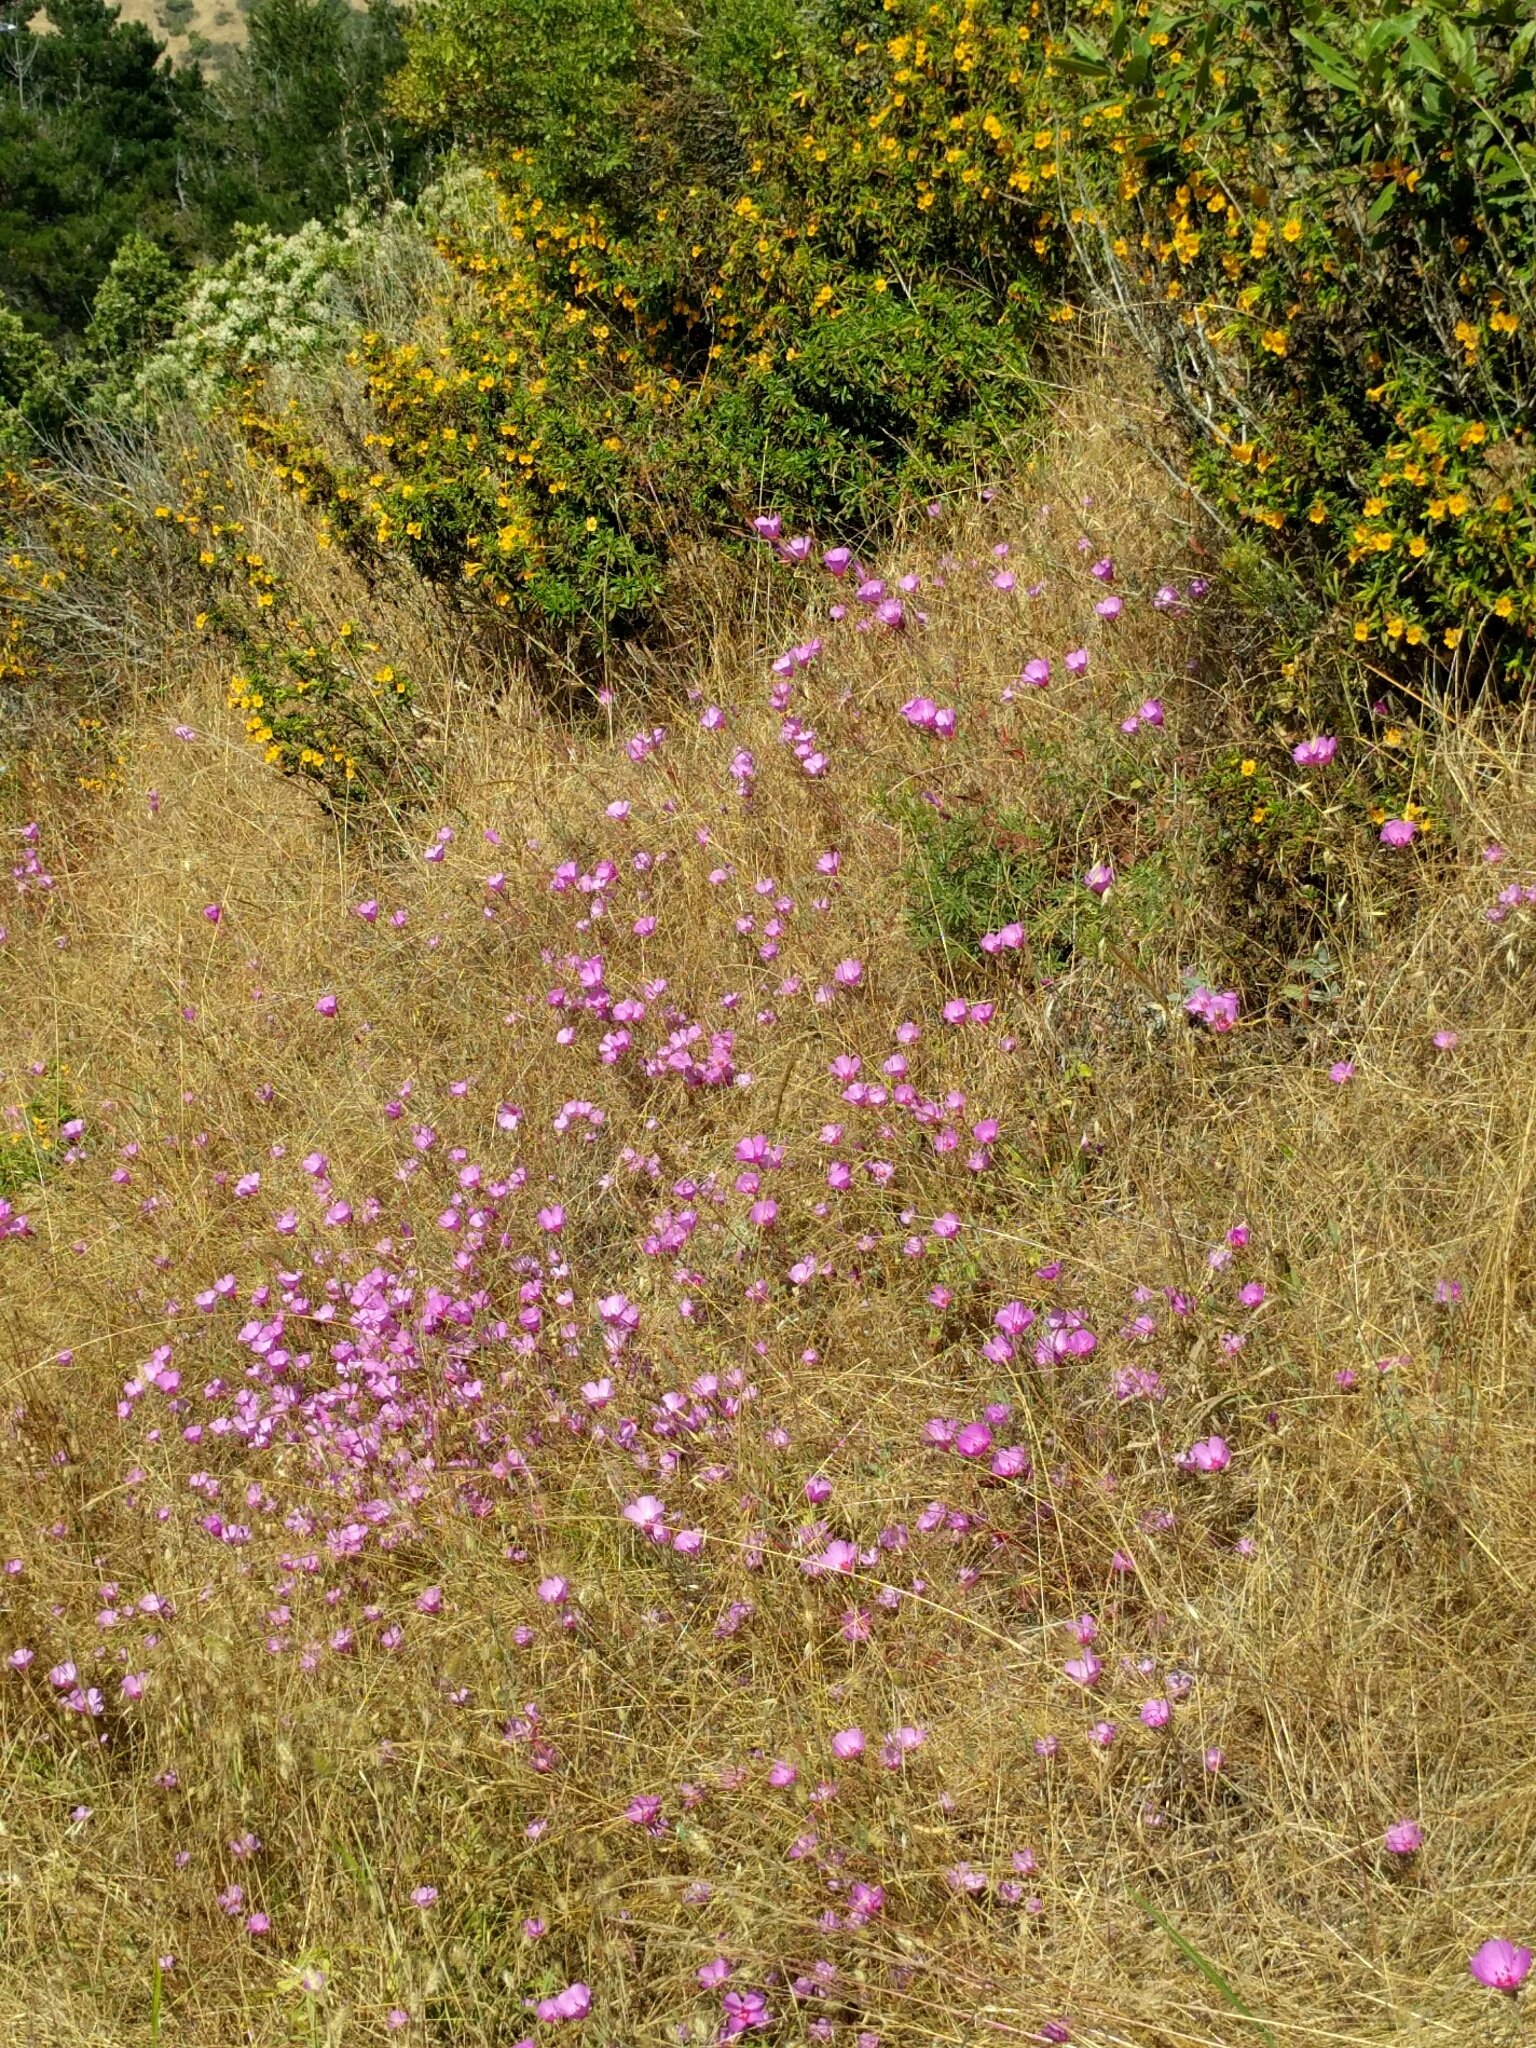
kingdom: Plantae
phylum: Tracheophyta
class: Magnoliopsida
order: Myrtales
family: Onagraceae
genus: Clarkia
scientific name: Clarkia rubicunda
